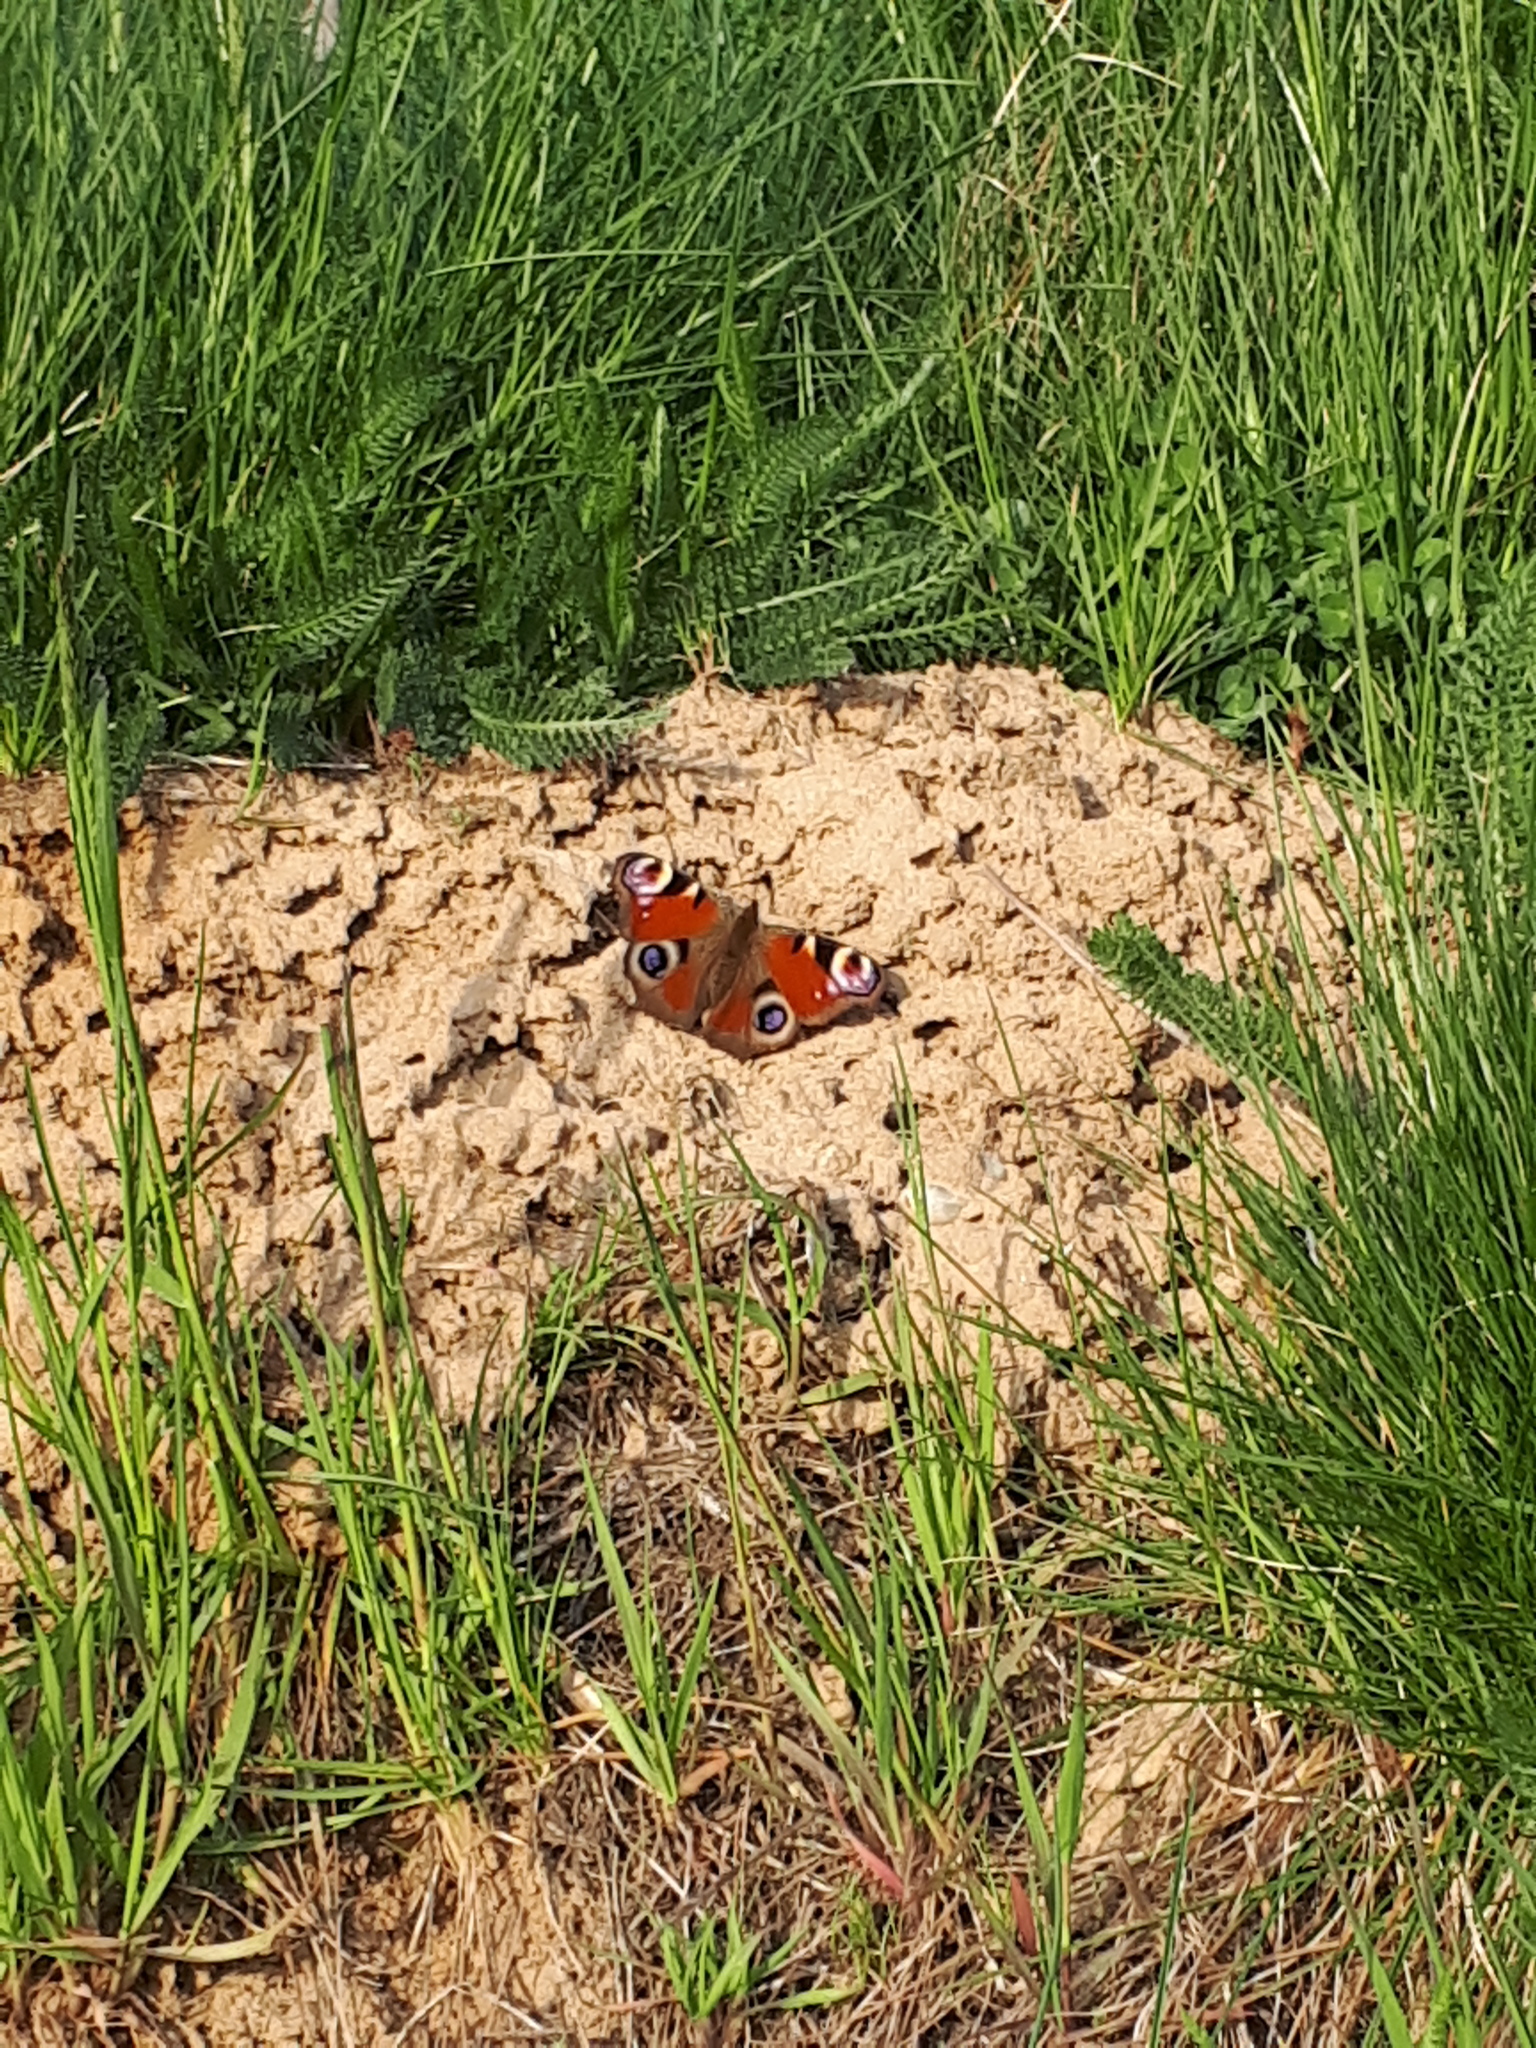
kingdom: Animalia
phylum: Arthropoda
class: Insecta
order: Lepidoptera
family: Nymphalidae
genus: Aglais
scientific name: Aglais io
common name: Peacock
